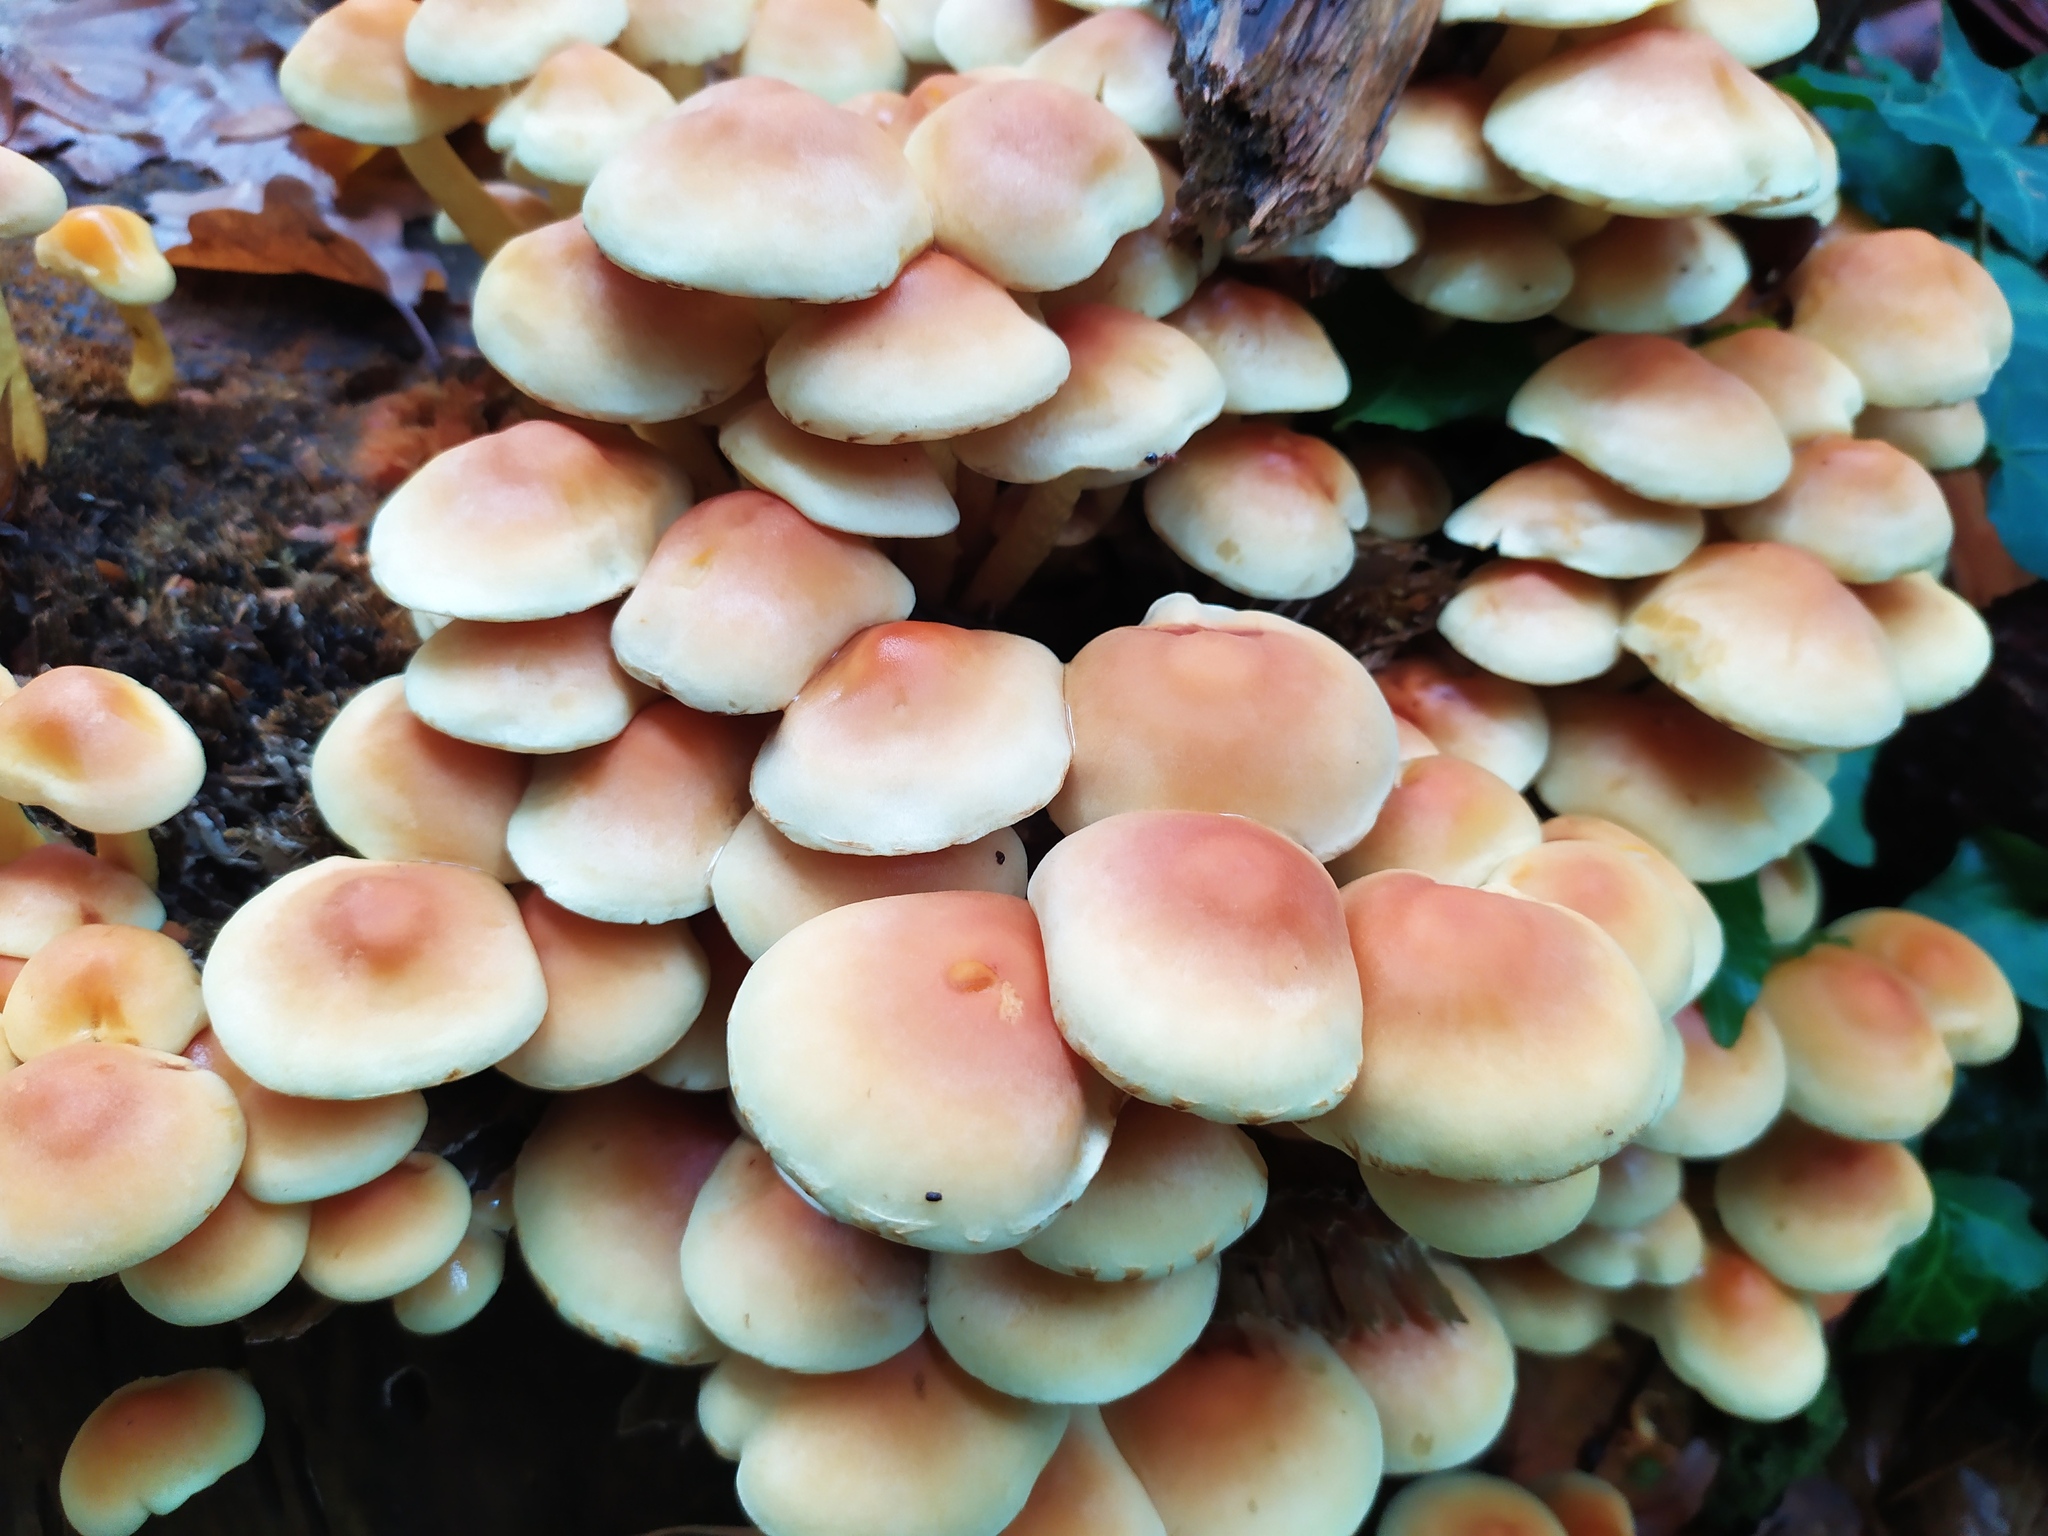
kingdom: Fungi
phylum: Basidiomycota
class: Agaricomycetes
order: Agaricales
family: Strophariaceae
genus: Hypholoma
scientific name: Hypholoma fasciculare
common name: Sulphur tuft
